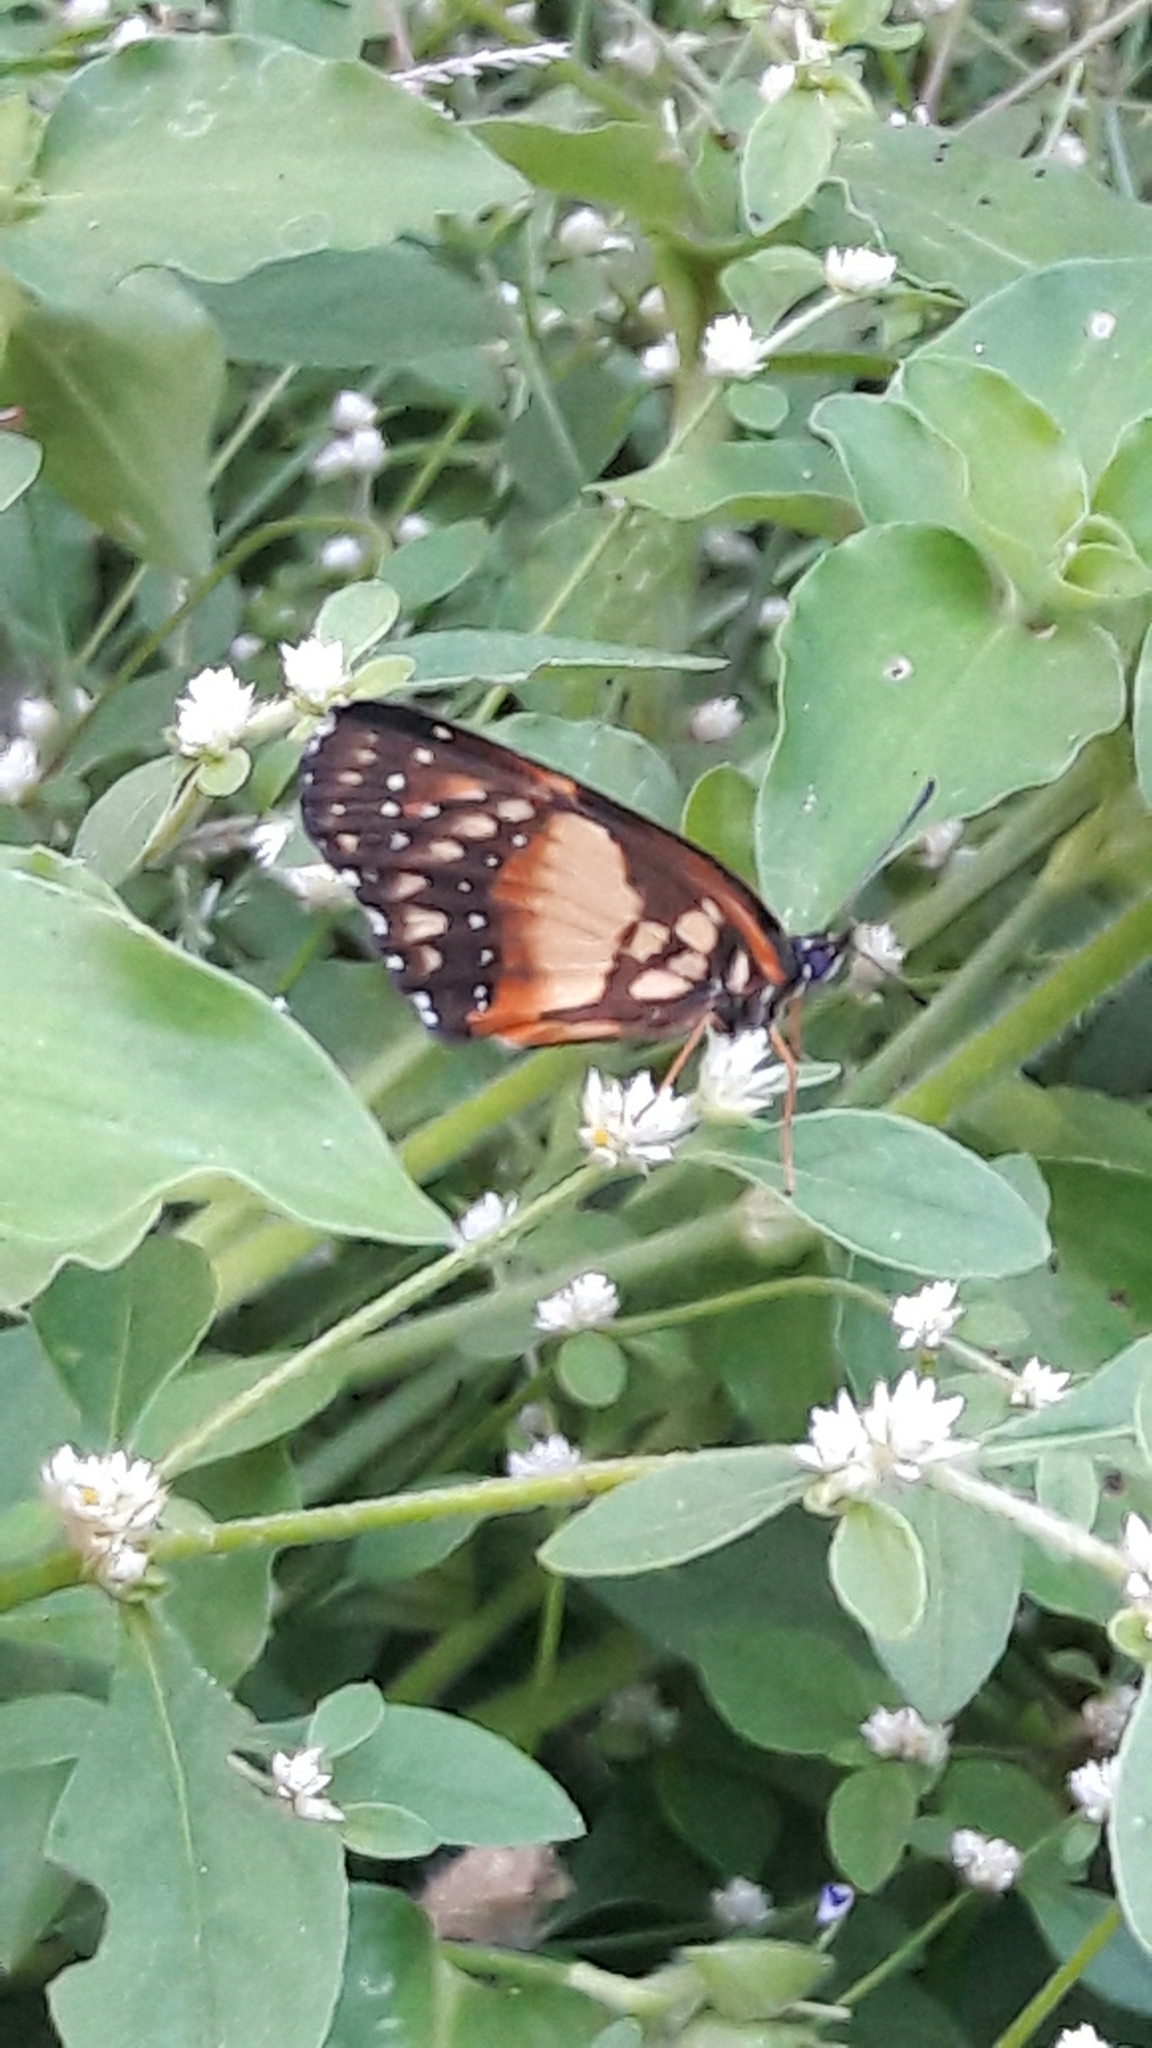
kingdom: Animalia
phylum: Arthropoda
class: Insecta
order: Lepidoptera
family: Nymphalidae
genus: Chlosyne
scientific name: Chlosyne lacinia
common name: Bordered patch
